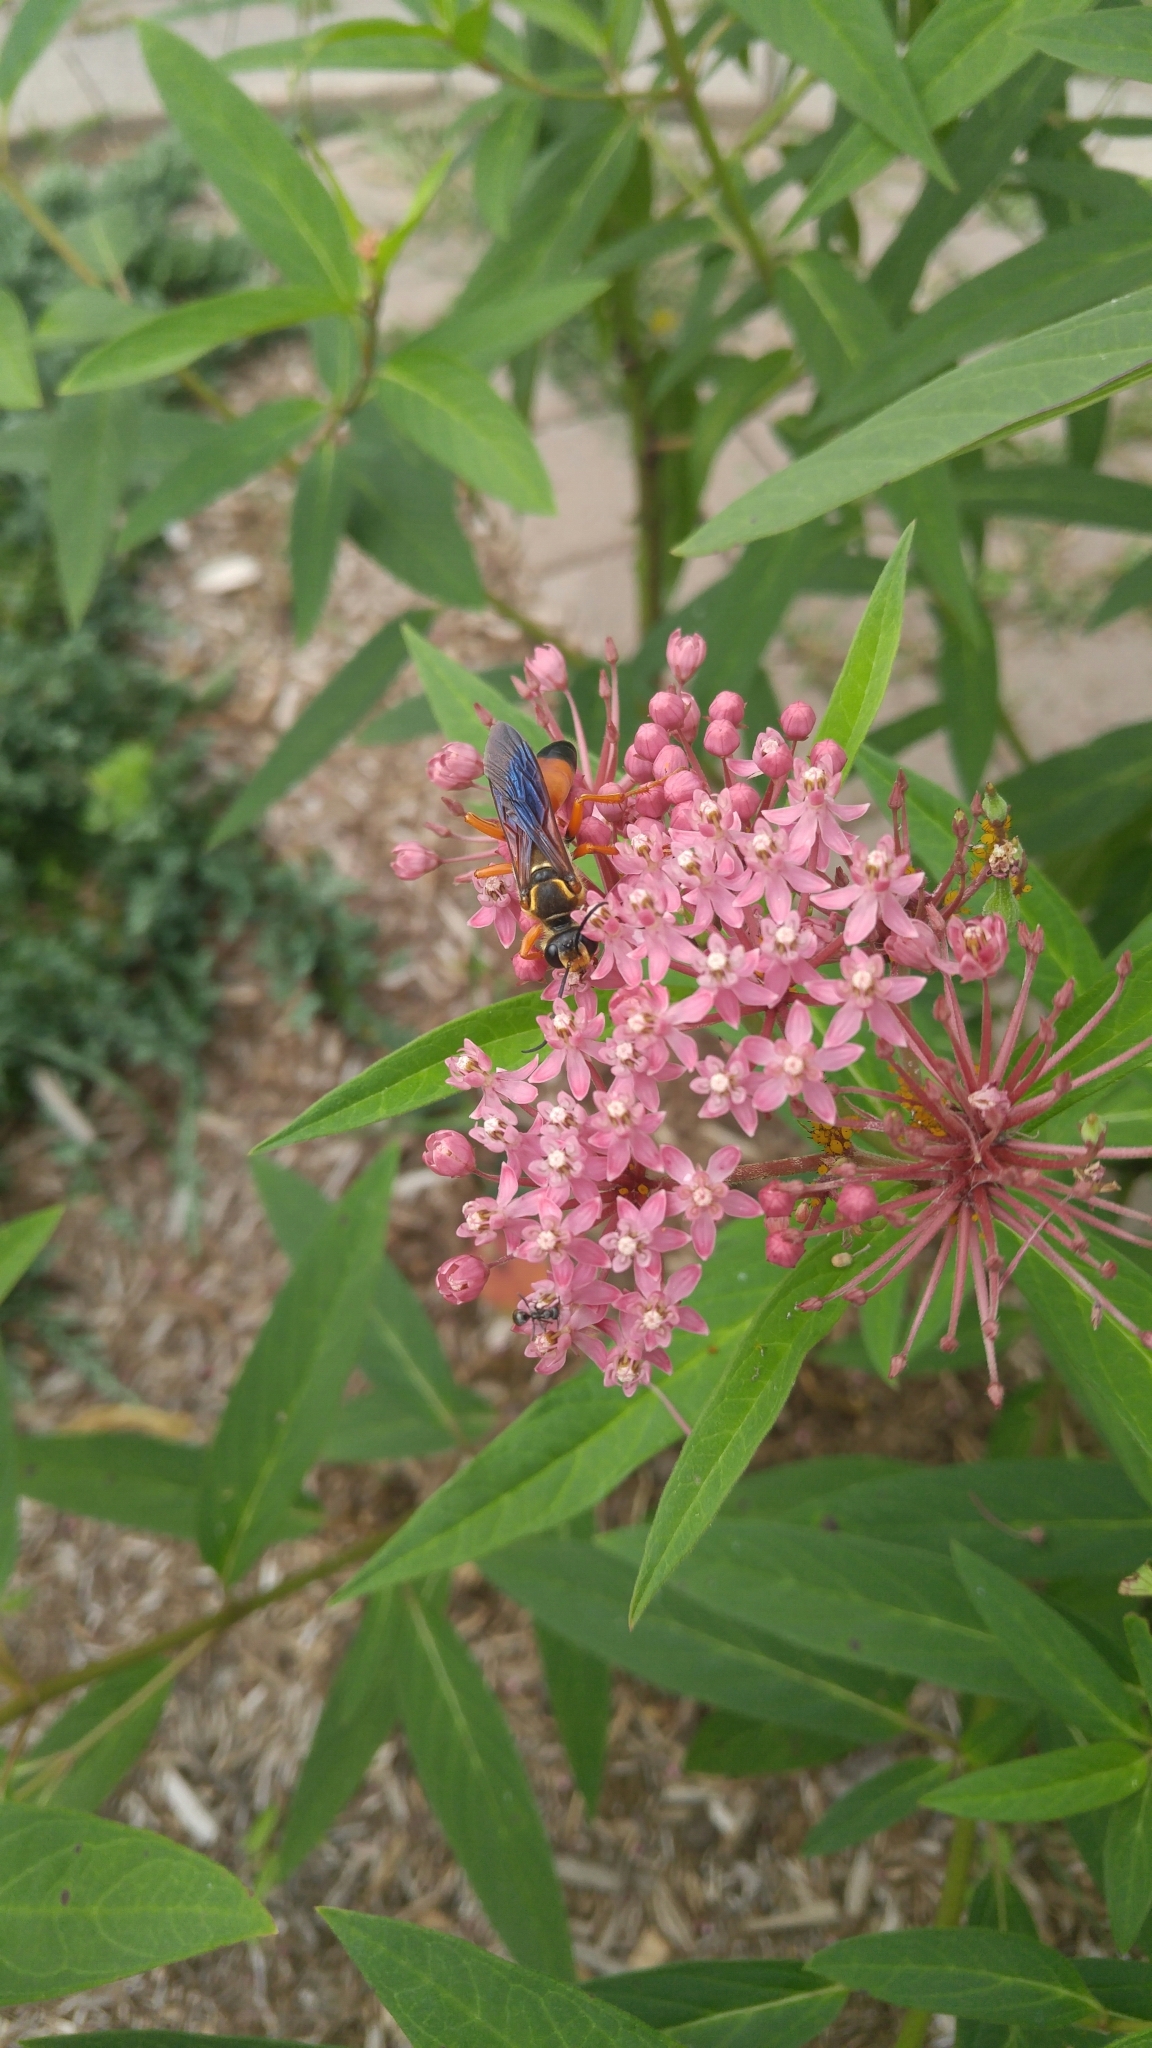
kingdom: Animalia
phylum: Arthropoda
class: Insecta
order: Hymenoptera
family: Sphecidae
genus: Sphex
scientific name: Sphex ichneumoneus
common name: Great golden digger wasp
